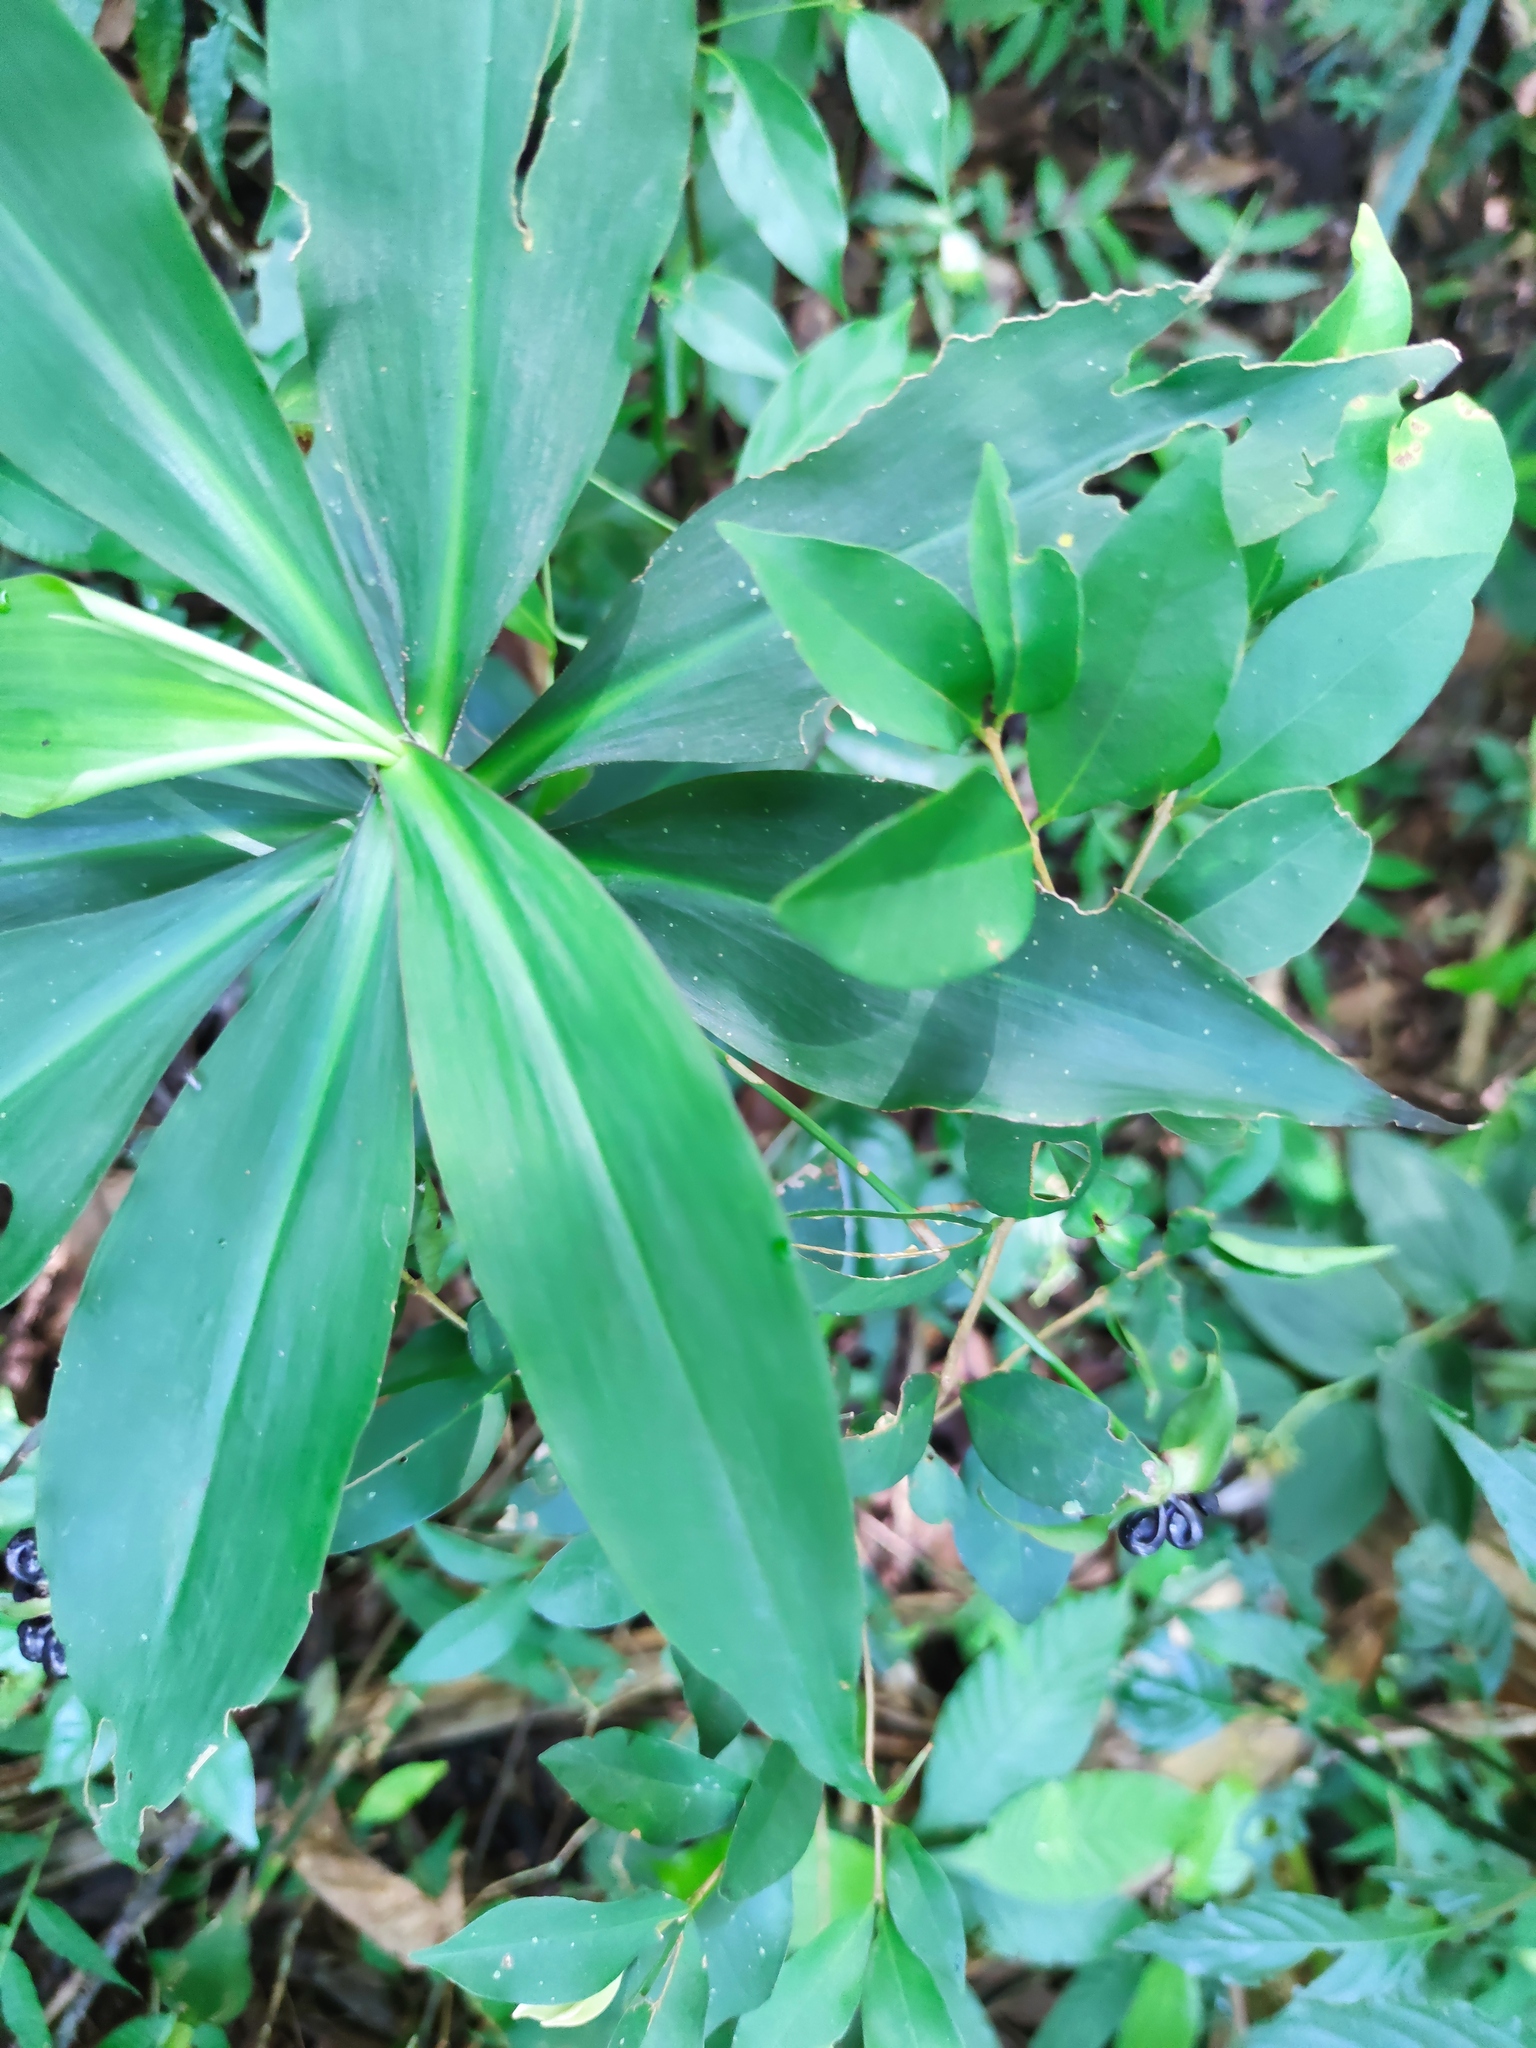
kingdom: Plantae
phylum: Tracheophyta
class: Liliopsida
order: Commelinales
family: Commelinaceae
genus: Tradescantia
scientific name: Tradescantia zanonia
